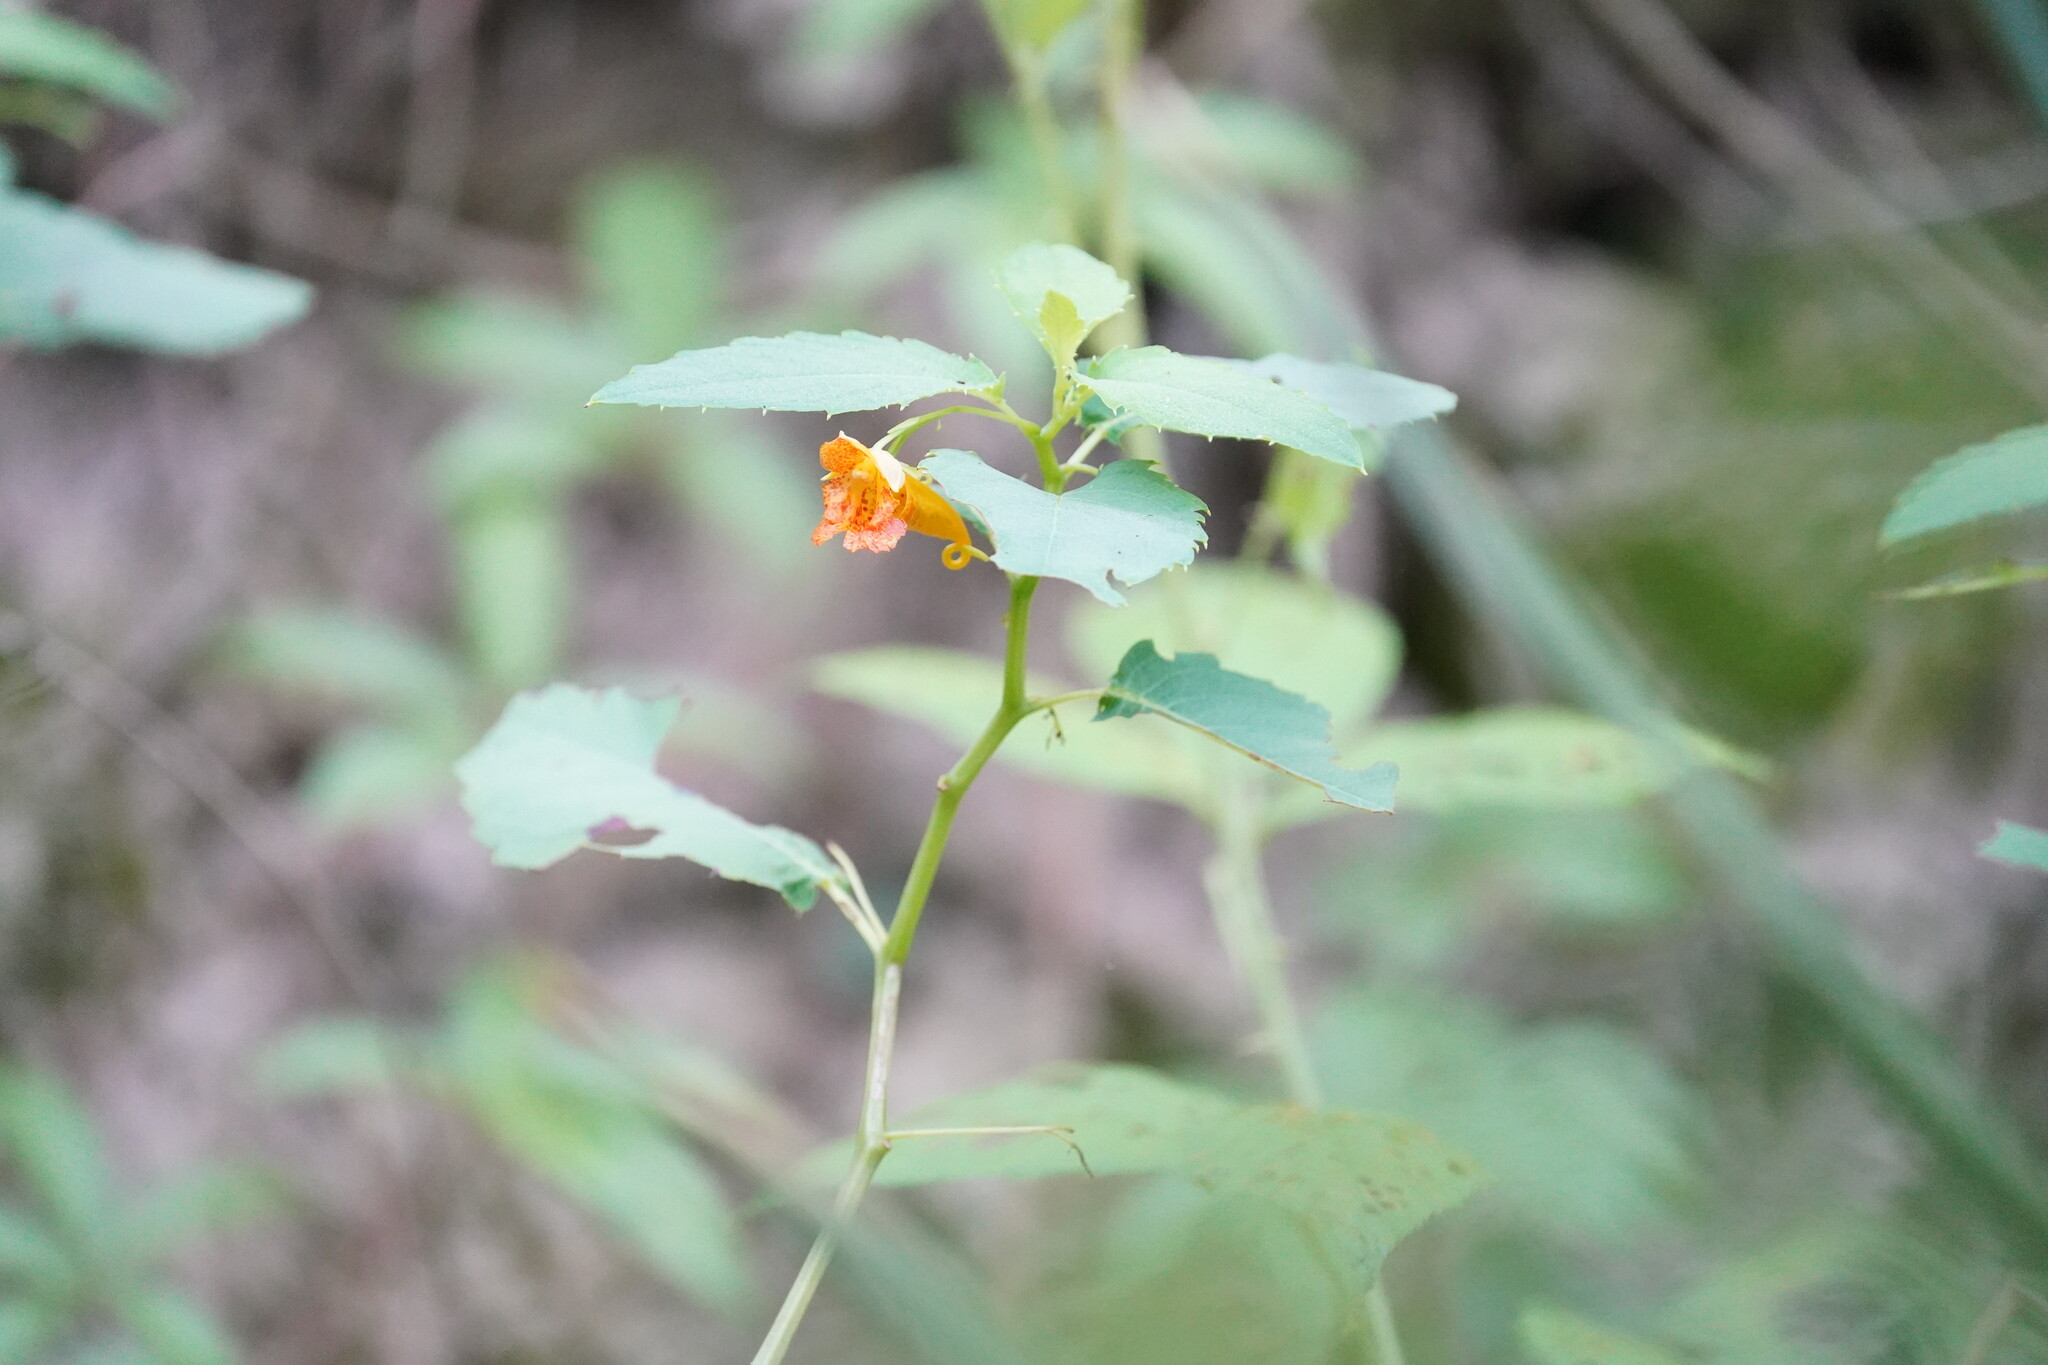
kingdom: Plantae
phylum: Tracheophyta
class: Magnoliopsida
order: Ericales
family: Balsaminaceae
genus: Impatiens
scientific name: Impatiens capensis
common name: Orange balsam
